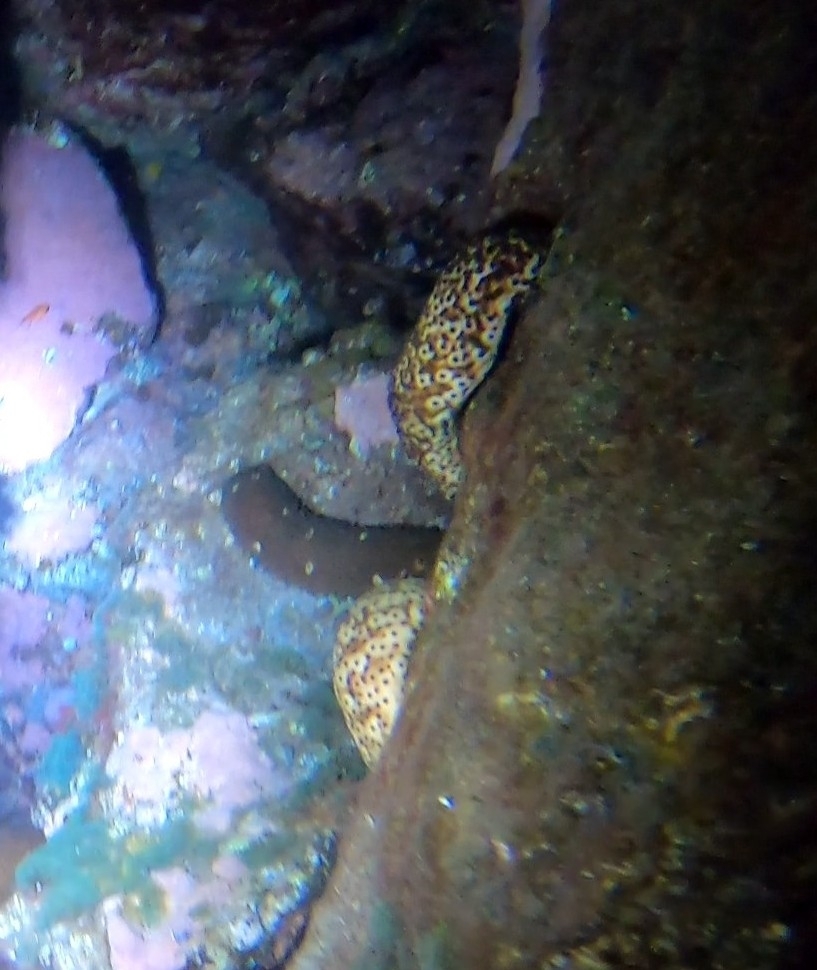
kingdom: Animalia
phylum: Echinodermata
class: Holothuroidea
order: Holothuriida
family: Holothuriidae
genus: Holothuria
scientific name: Holothuria sanctori
